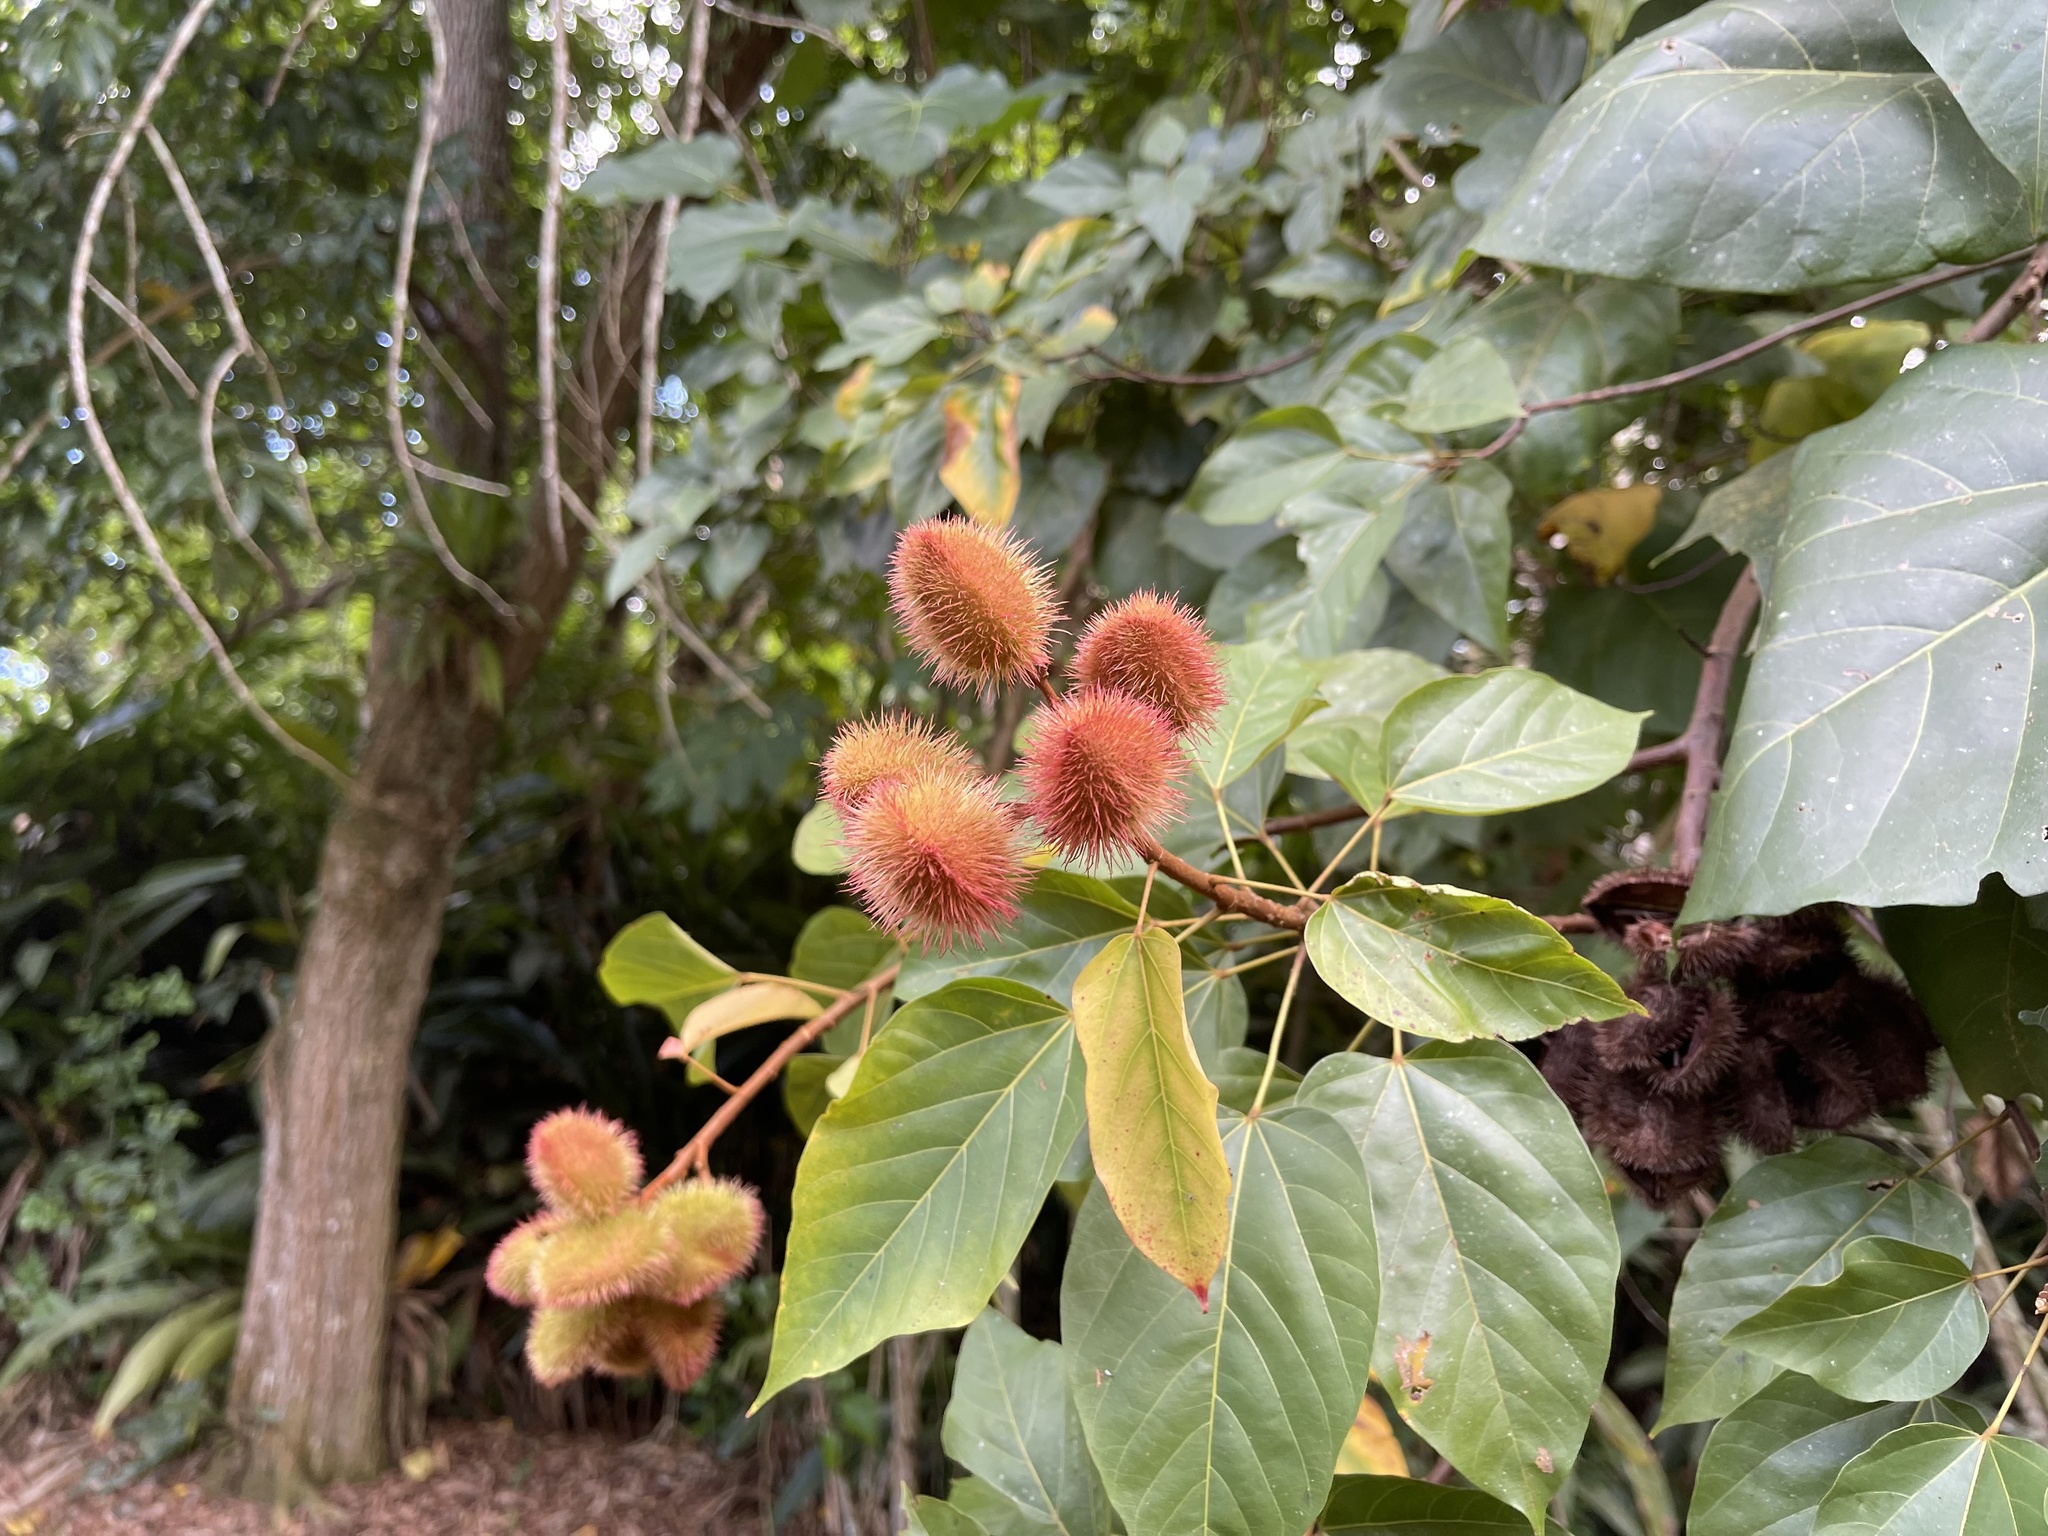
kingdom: Plantae
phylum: Tracheophyta
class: Magnoliopsida
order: Malvales
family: Bixaceae
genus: Bixa
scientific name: Bixa orellana
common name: Lipsticktree
